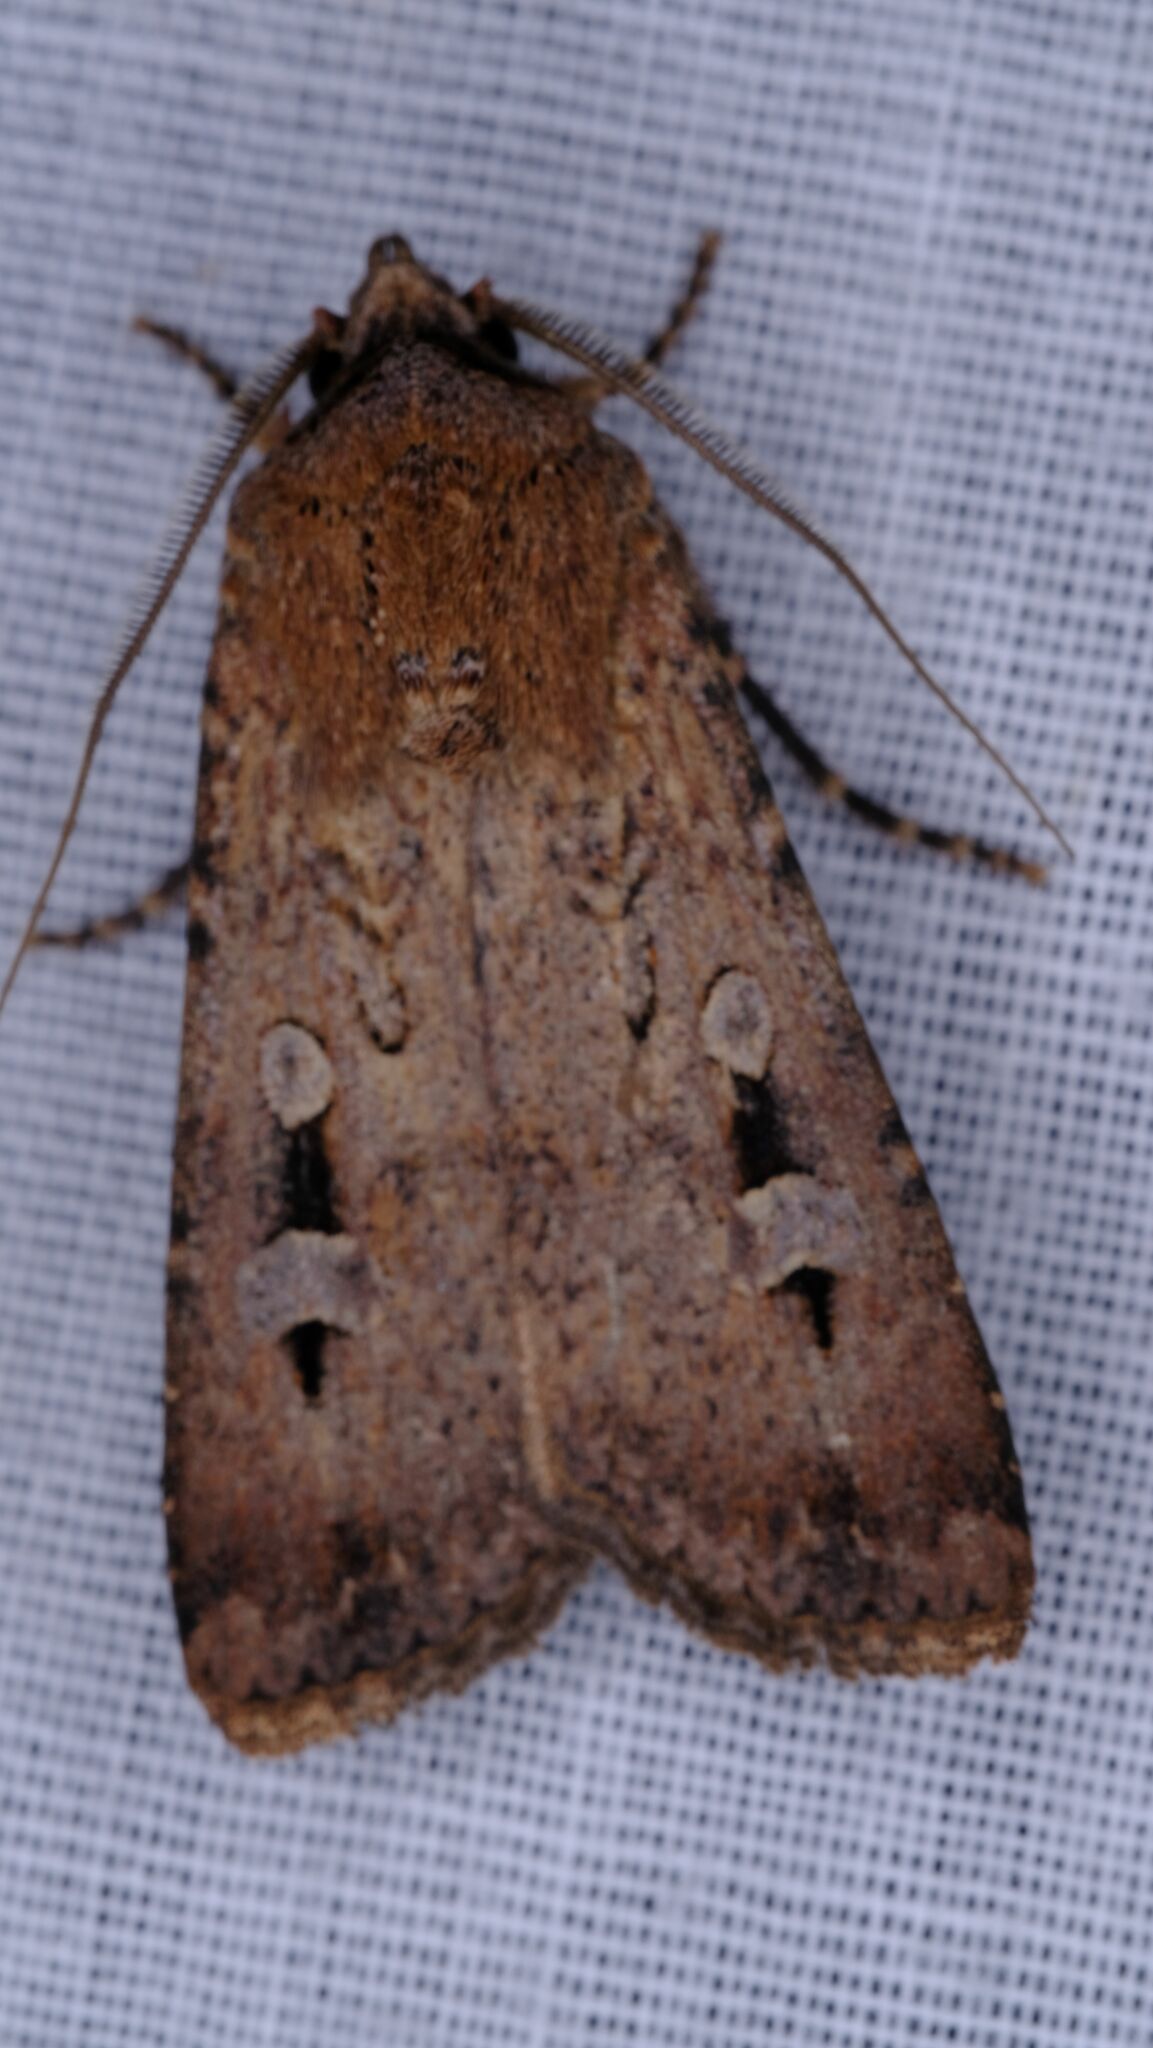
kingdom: Animalia
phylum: Arthropoda
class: Insecta
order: Lepidoptera
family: Noctuidae
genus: Agrotis
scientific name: Agrotis infusa
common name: Bogong moth
